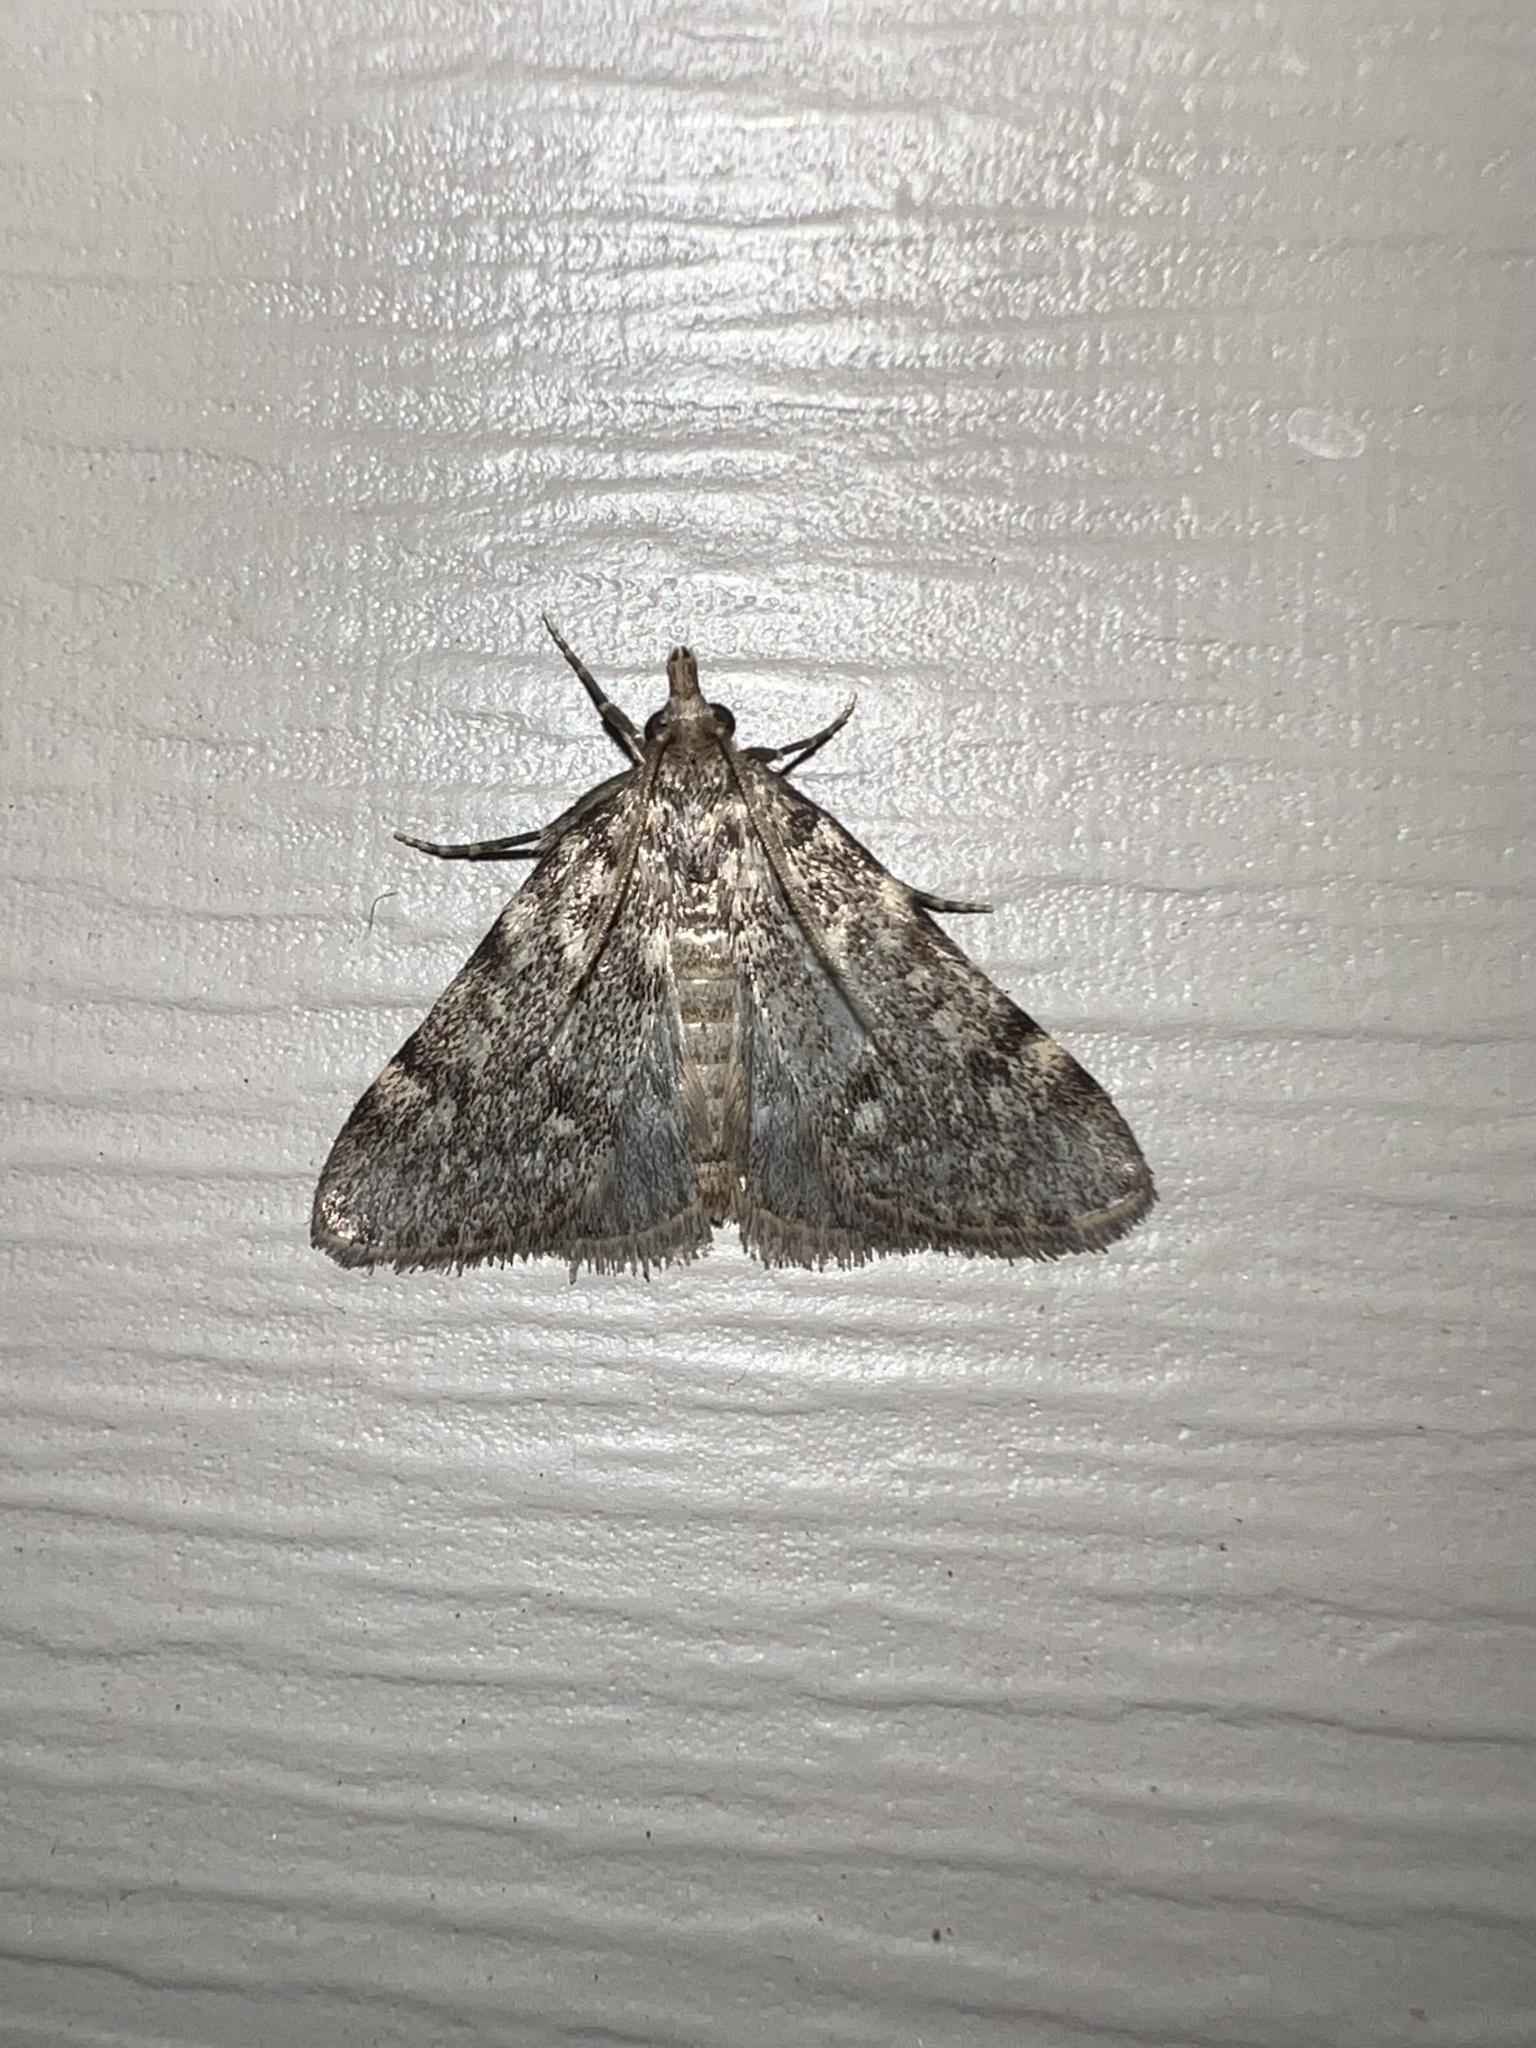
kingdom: Animalia
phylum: Arthropoda
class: Insecta
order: Lepidoptera
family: Pyralidae
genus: Aglossa
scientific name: Aglossa pinguinalis
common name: Large tabby
